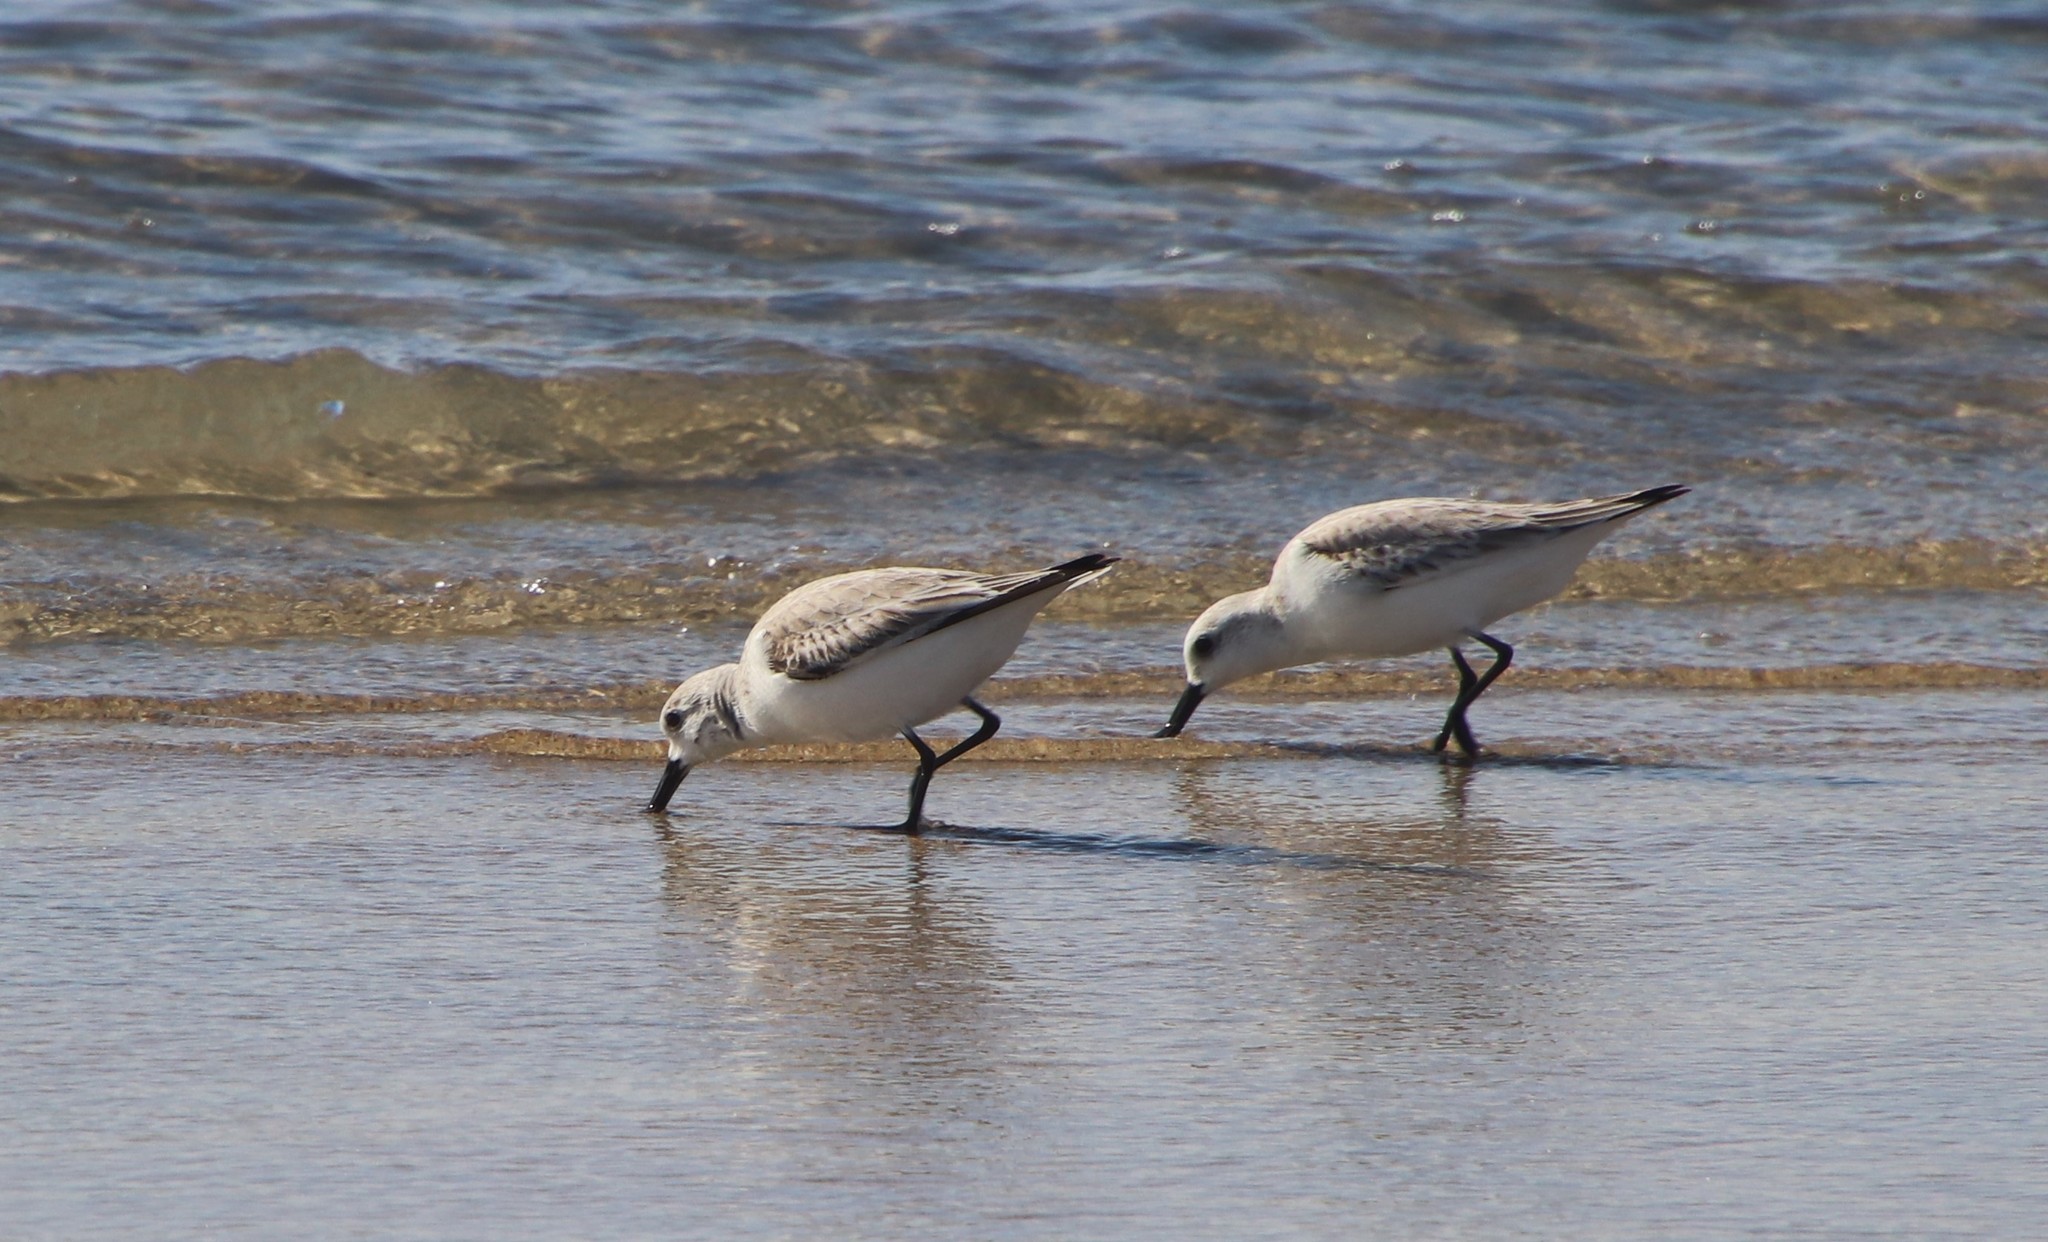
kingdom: Animalia
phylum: Chordata
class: Aves
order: Charadriiformes
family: Scolopacidae
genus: Calidris
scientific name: Calidris alba
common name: Sanderling
